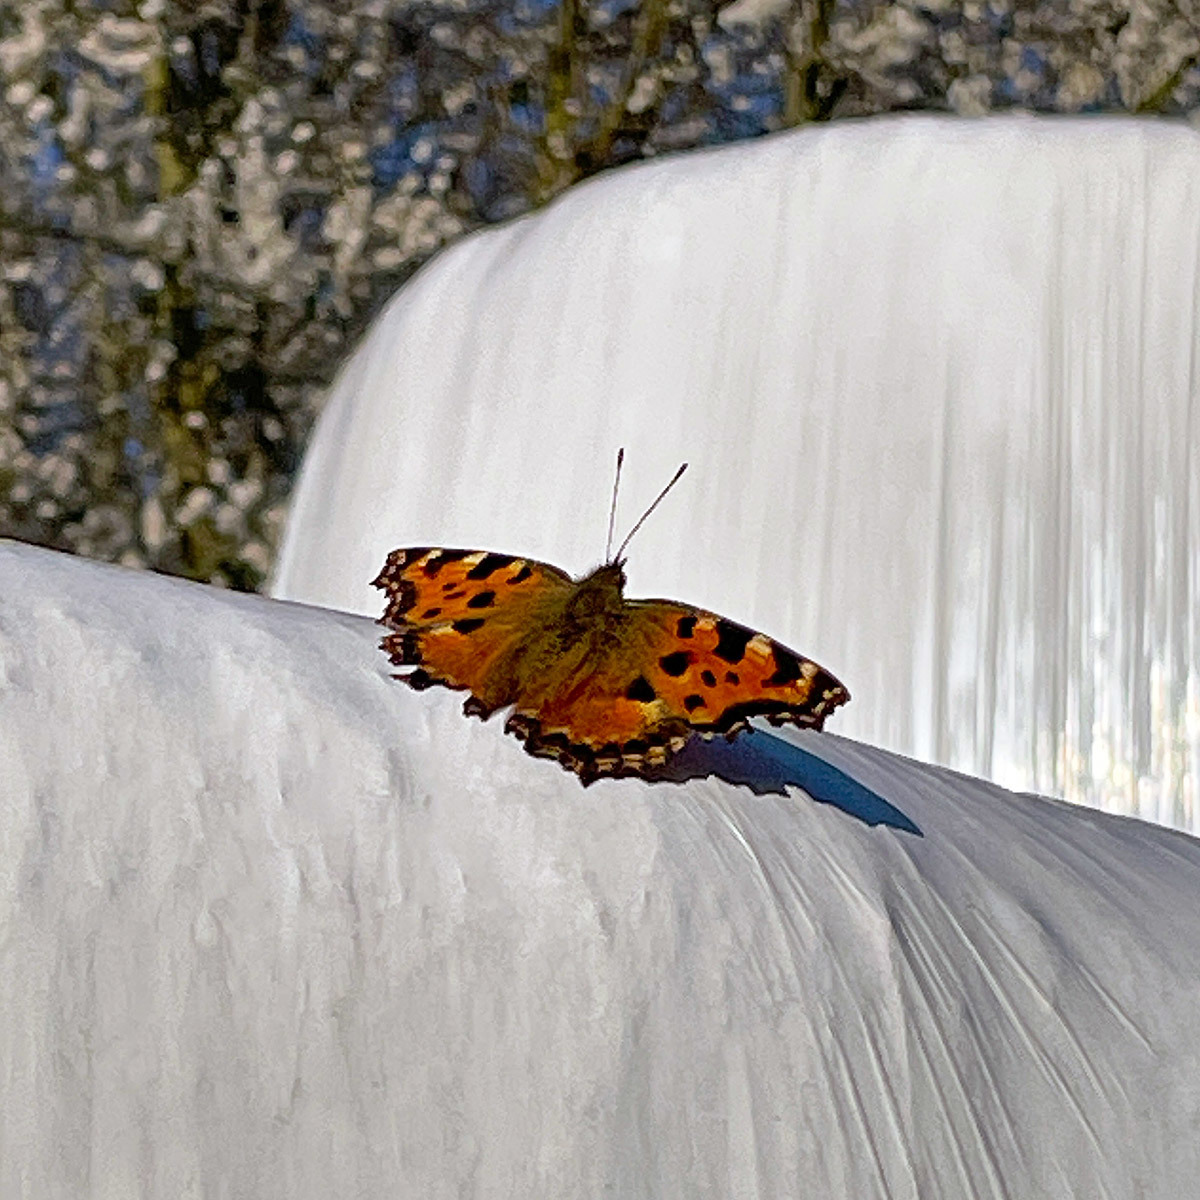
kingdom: Animalia
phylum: Arthropoda
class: Insecta
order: Lepidoptera
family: Nymphalidae
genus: Nymphalis
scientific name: Nymphalis polychloros
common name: Large tortoiseshell
